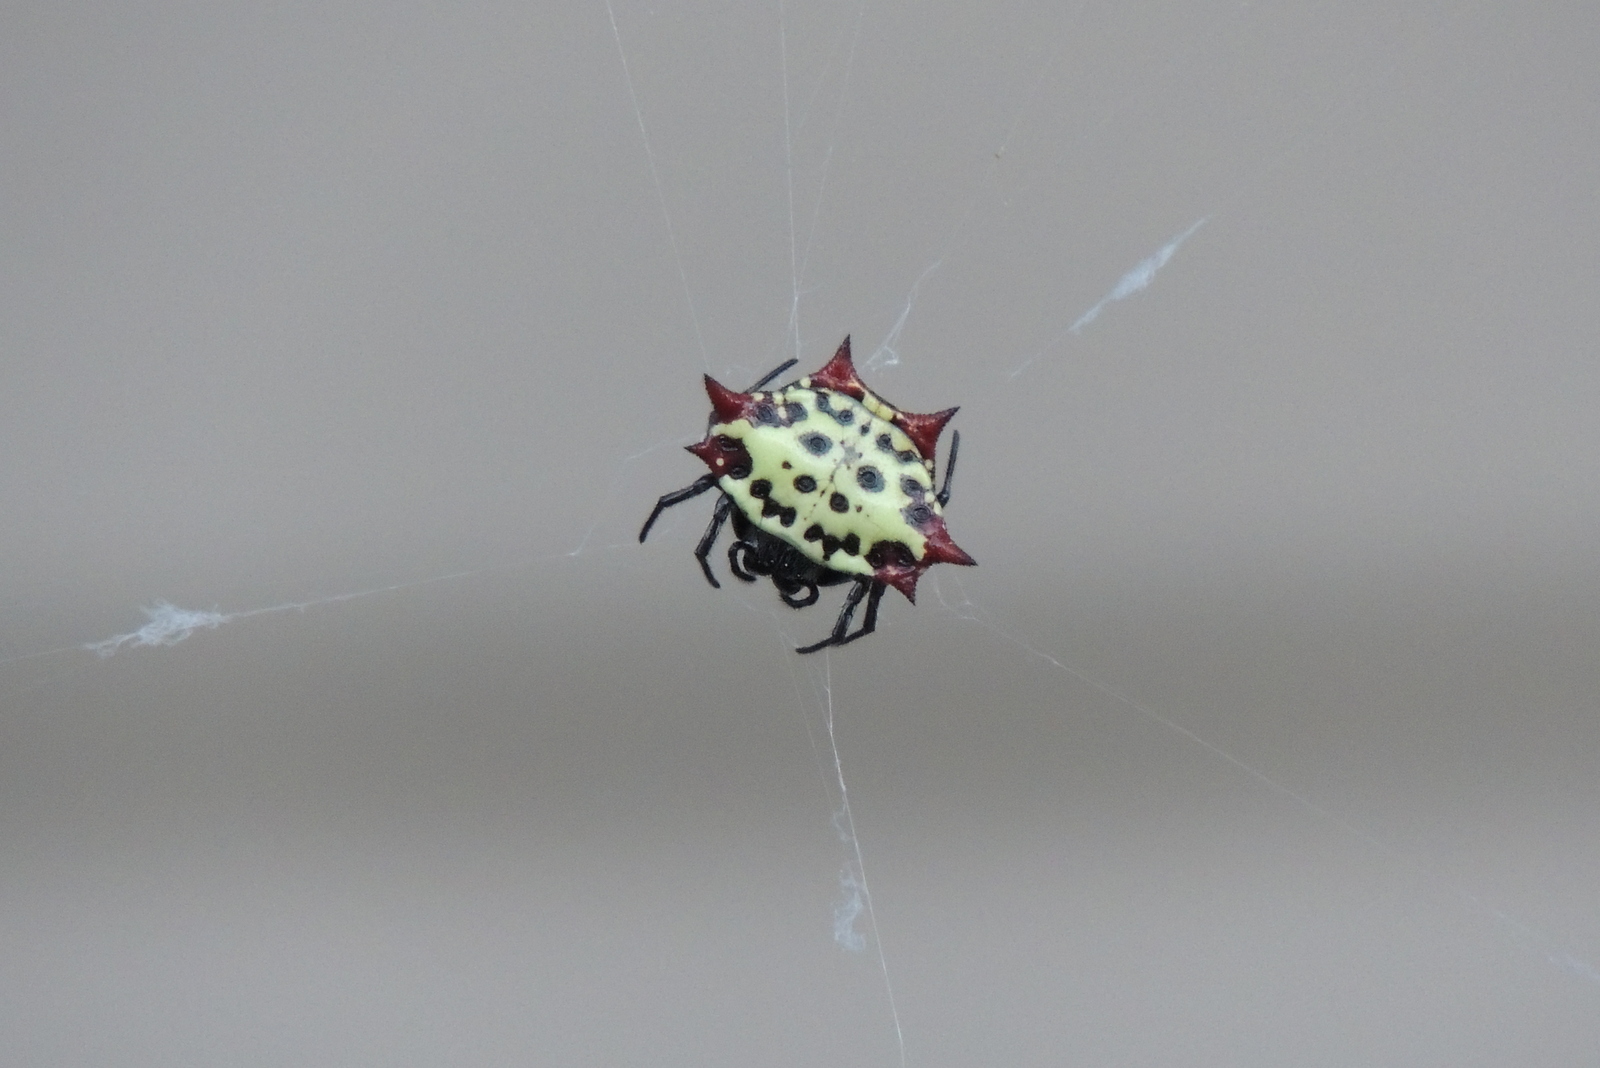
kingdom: Animalia
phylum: Arthropoda
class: Arachnida
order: Araneae
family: Araneidae
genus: Gasteracantha
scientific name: Gasteracantha cancriformis
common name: Orb weavers
